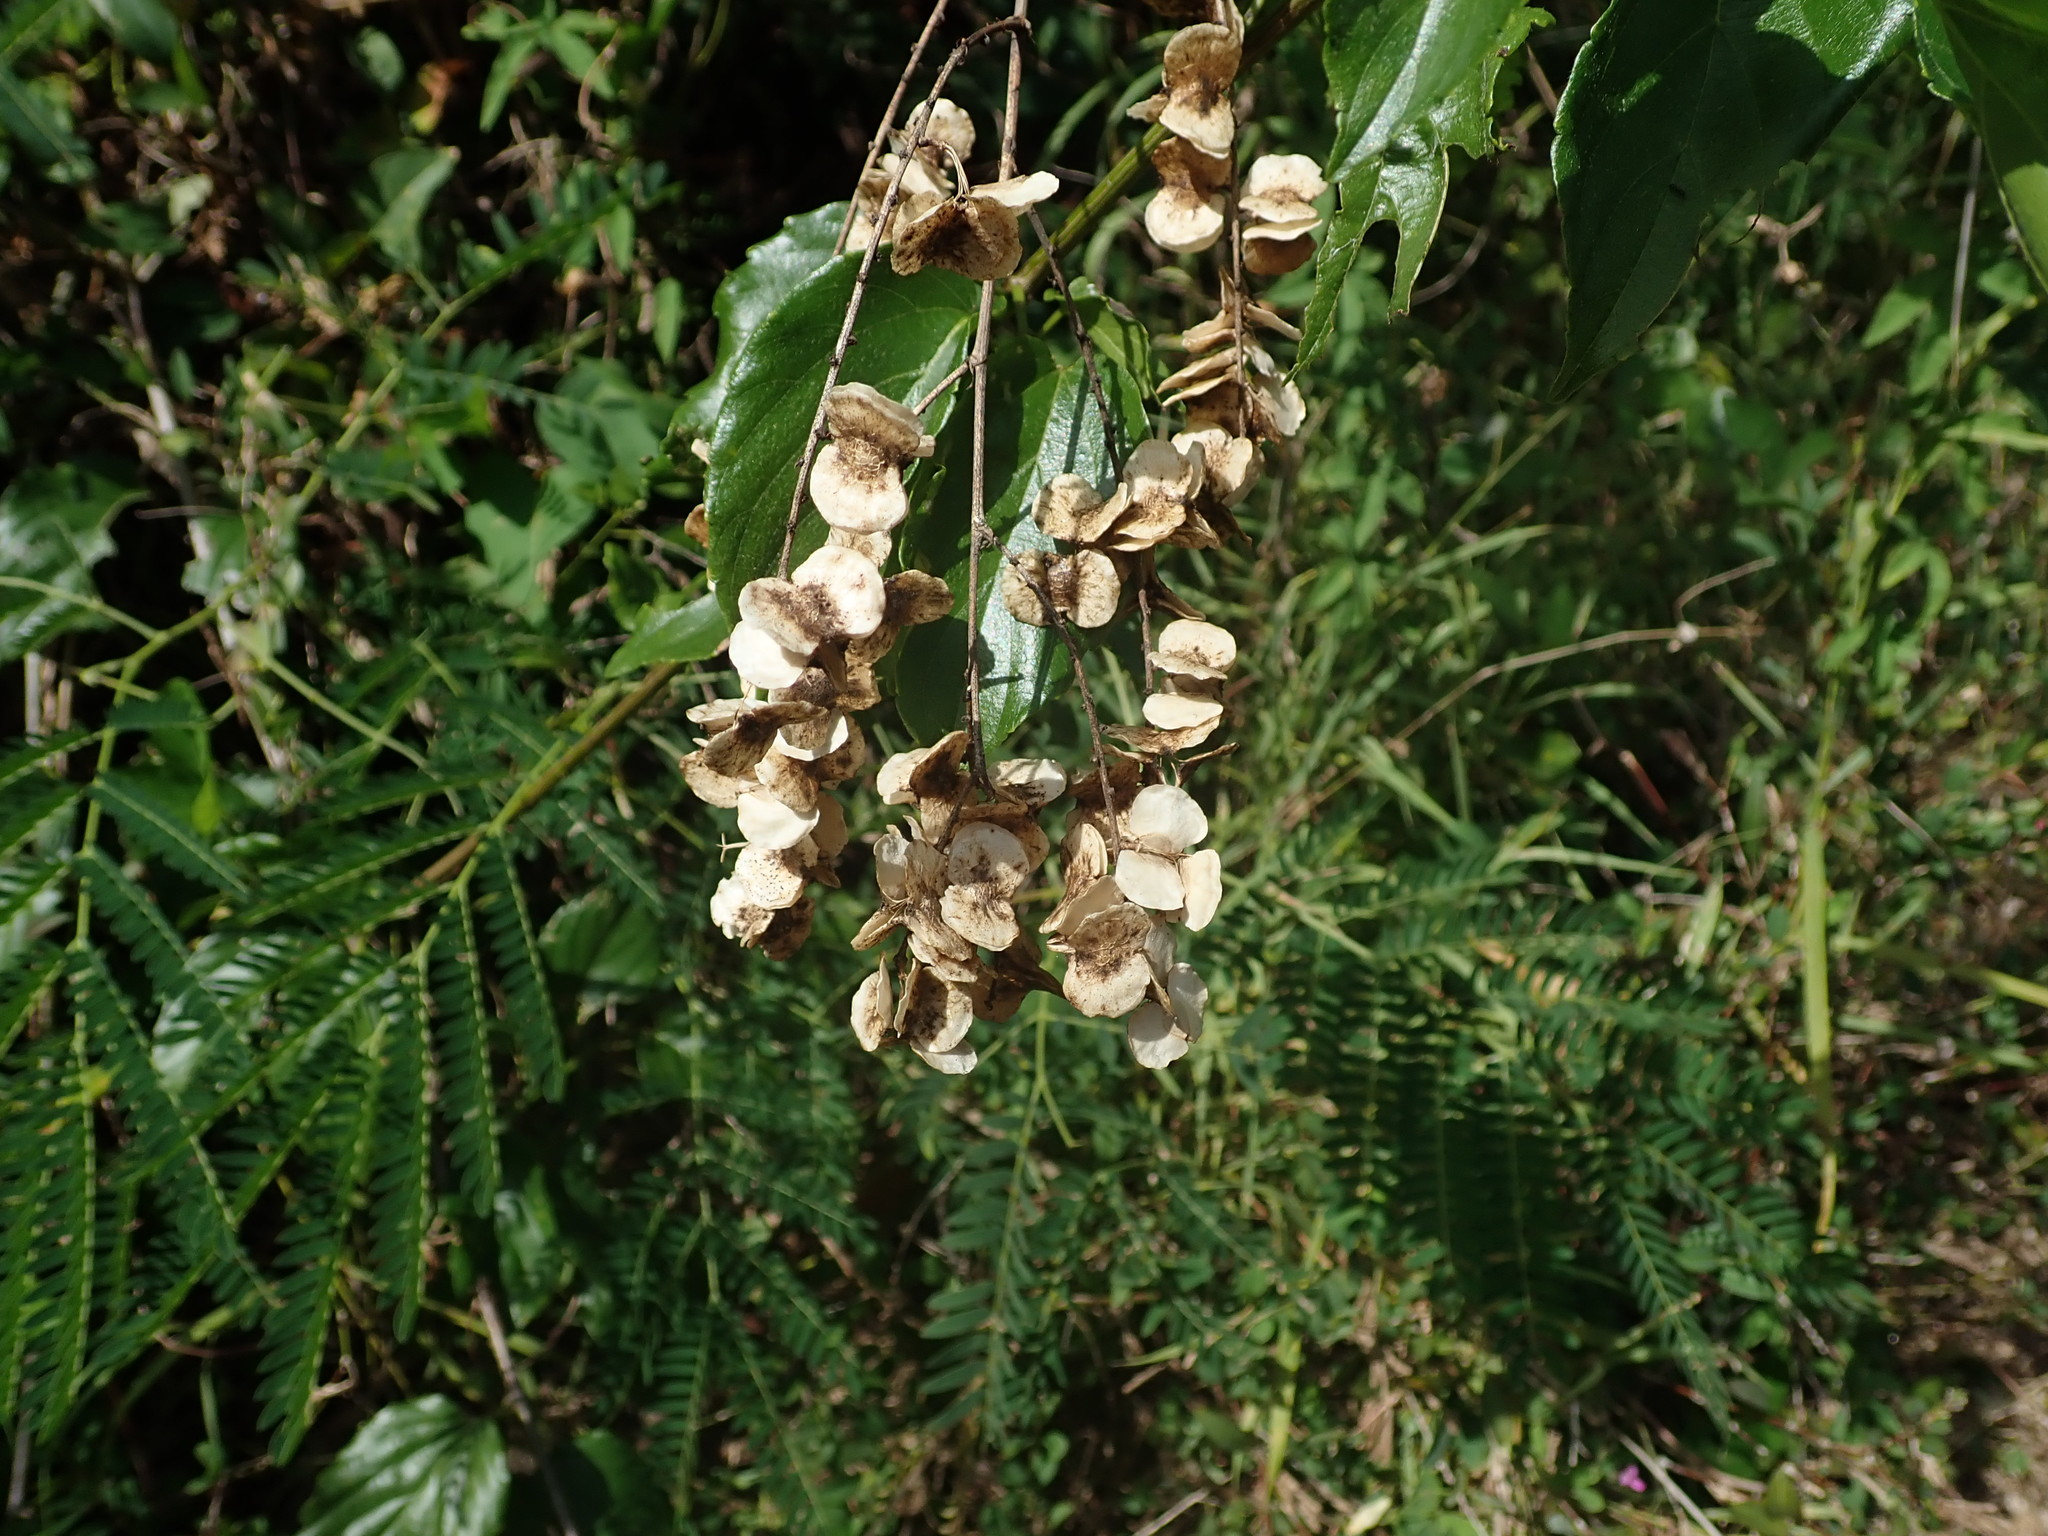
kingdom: Plantae
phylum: Tracheophyta
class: Magnoliopsida
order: Rosales
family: Rhamnaceae
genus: Gouania
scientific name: Gouania lupuloides
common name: Chewstick
